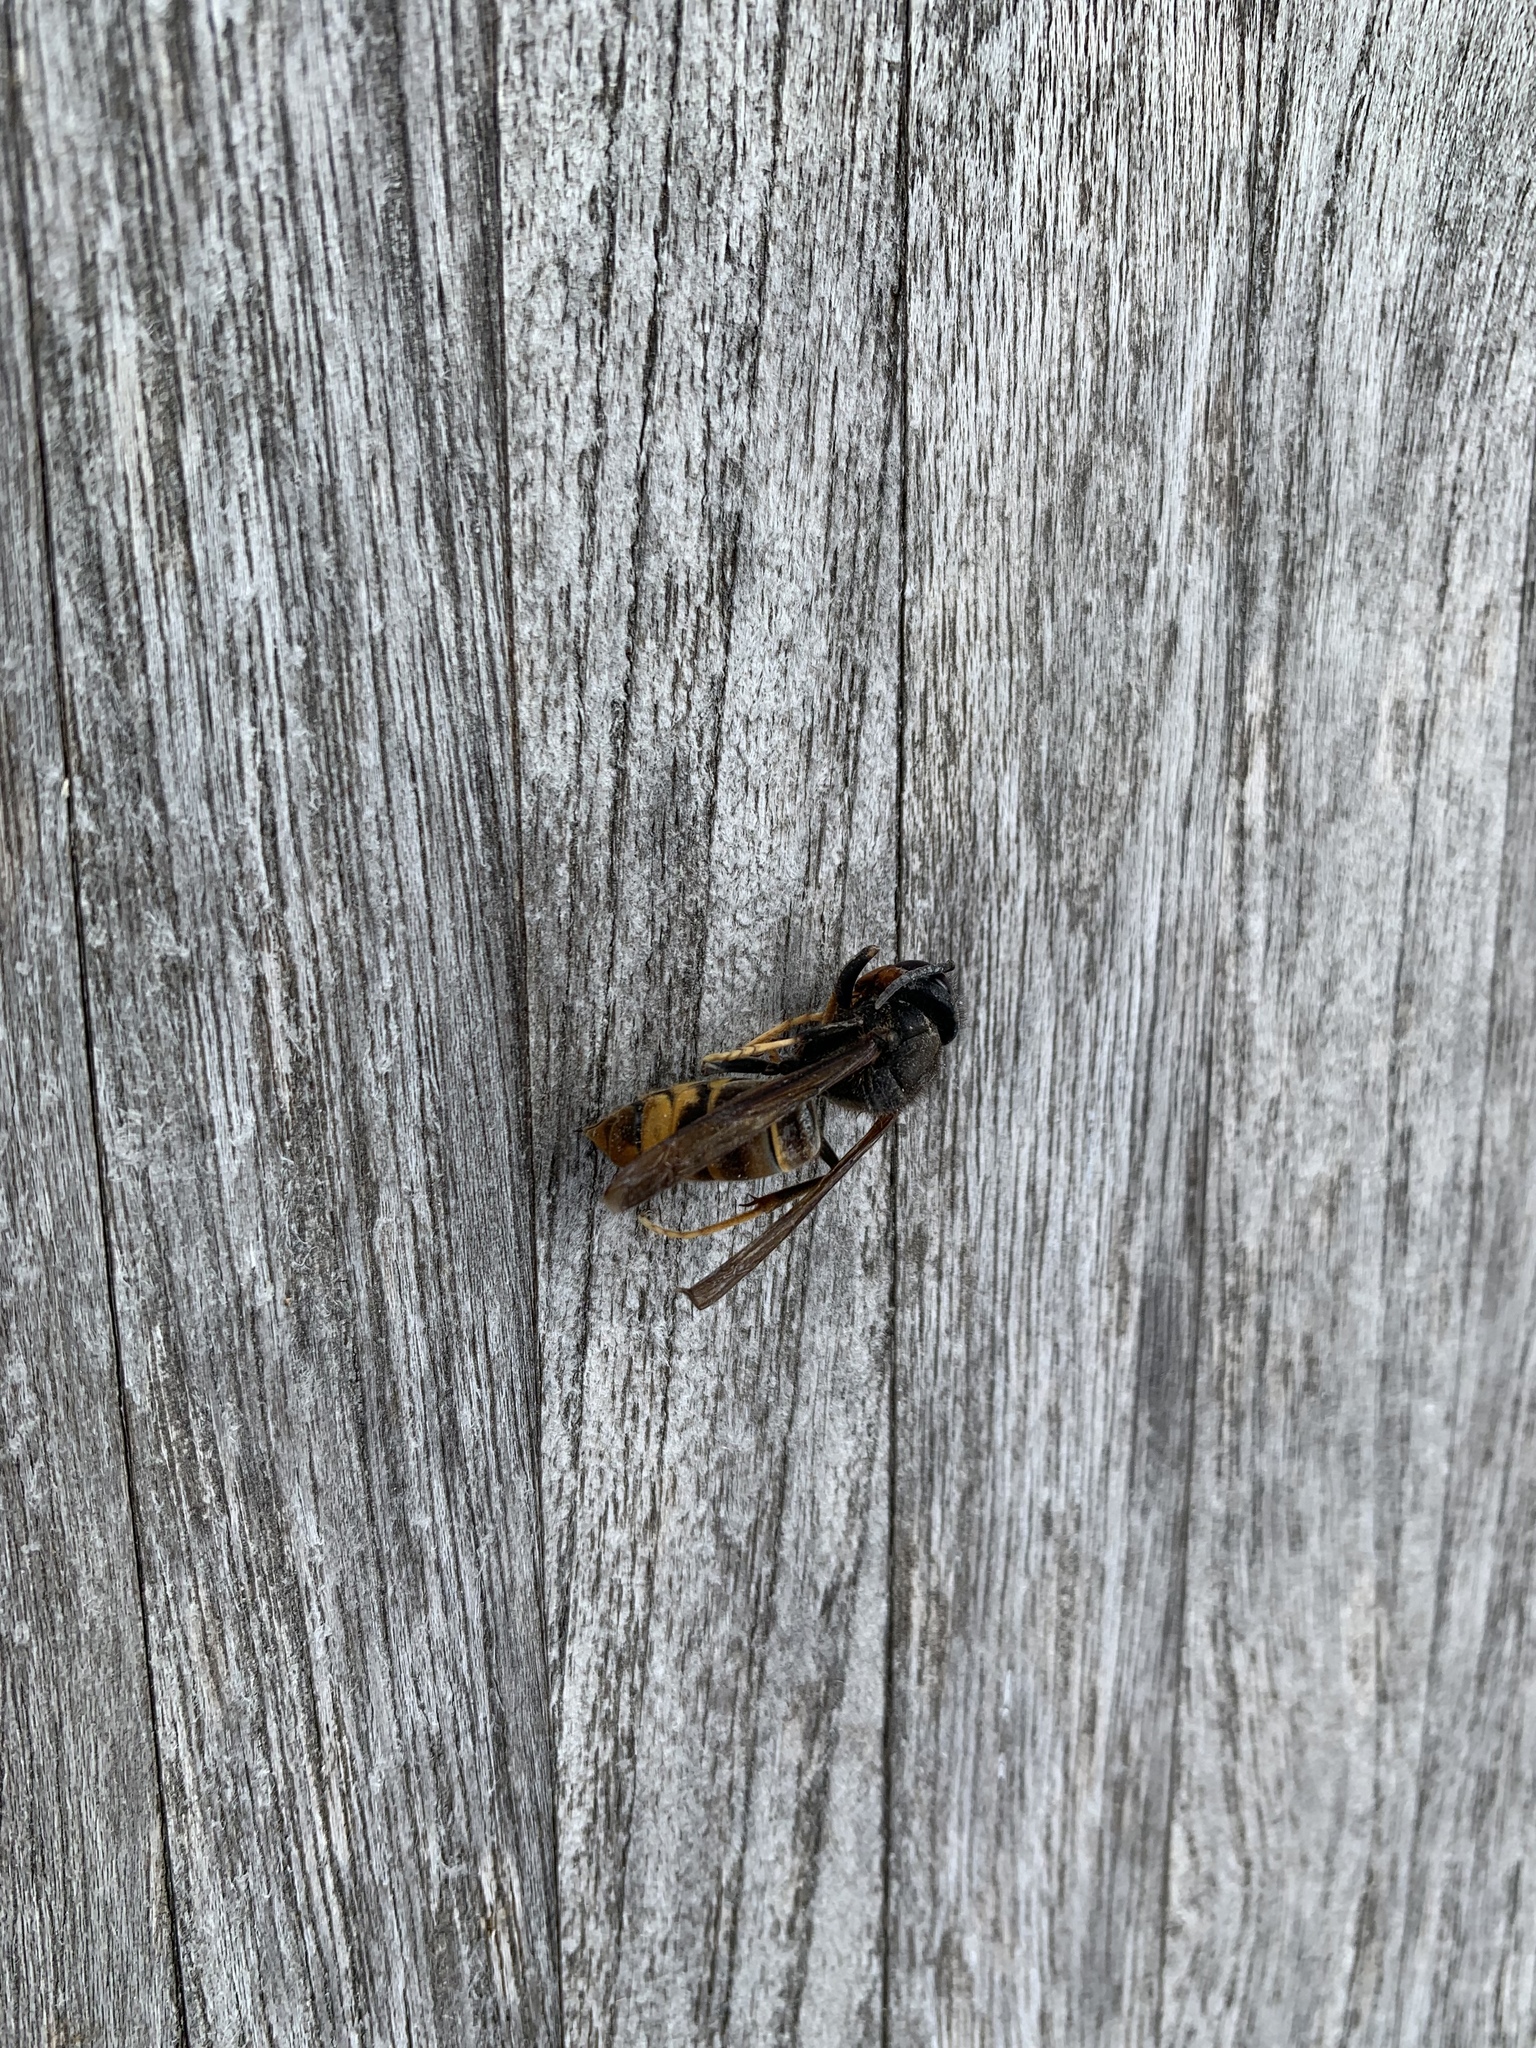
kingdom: Animalia
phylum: Arthropoda
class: Insecta
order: Hymenoptera
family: Vespidae
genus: Vespa
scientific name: Vespa velutina
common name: Asian hornet
